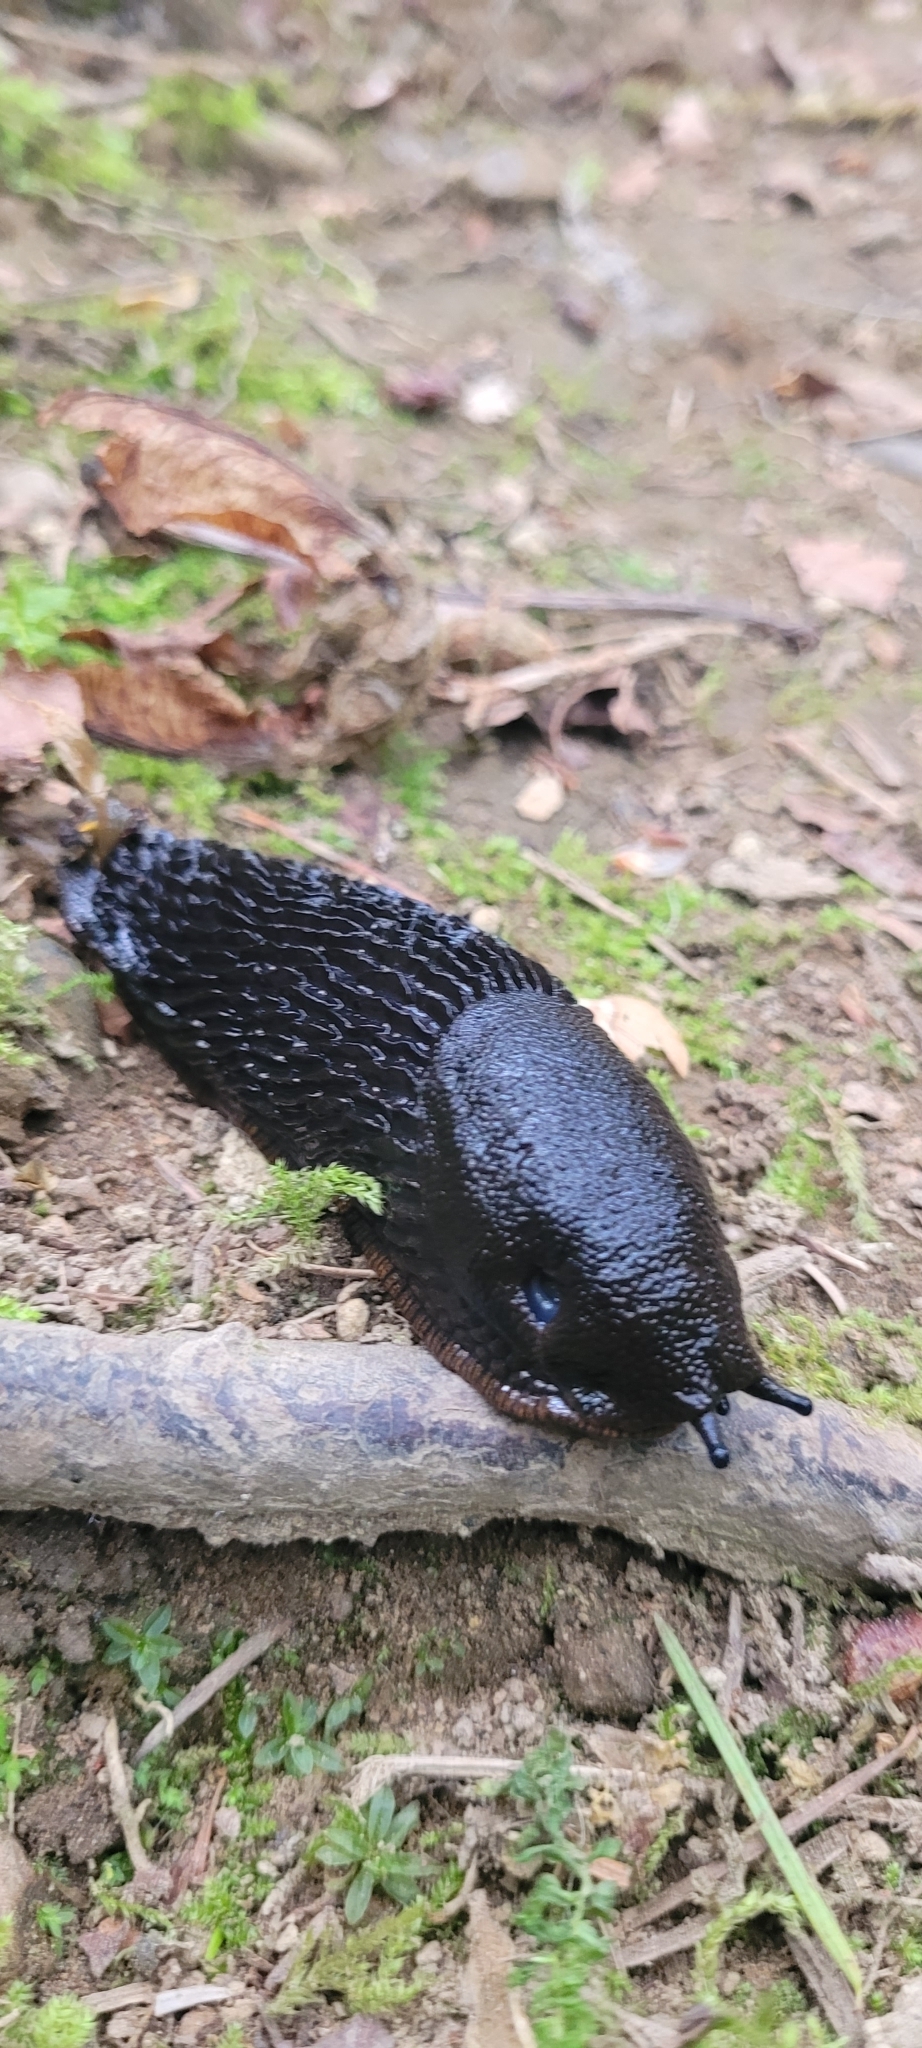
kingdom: Animalia
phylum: Mollusca
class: Gastropoda
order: Stylommatophora
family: Arionidae
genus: Arion
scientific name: Arion
